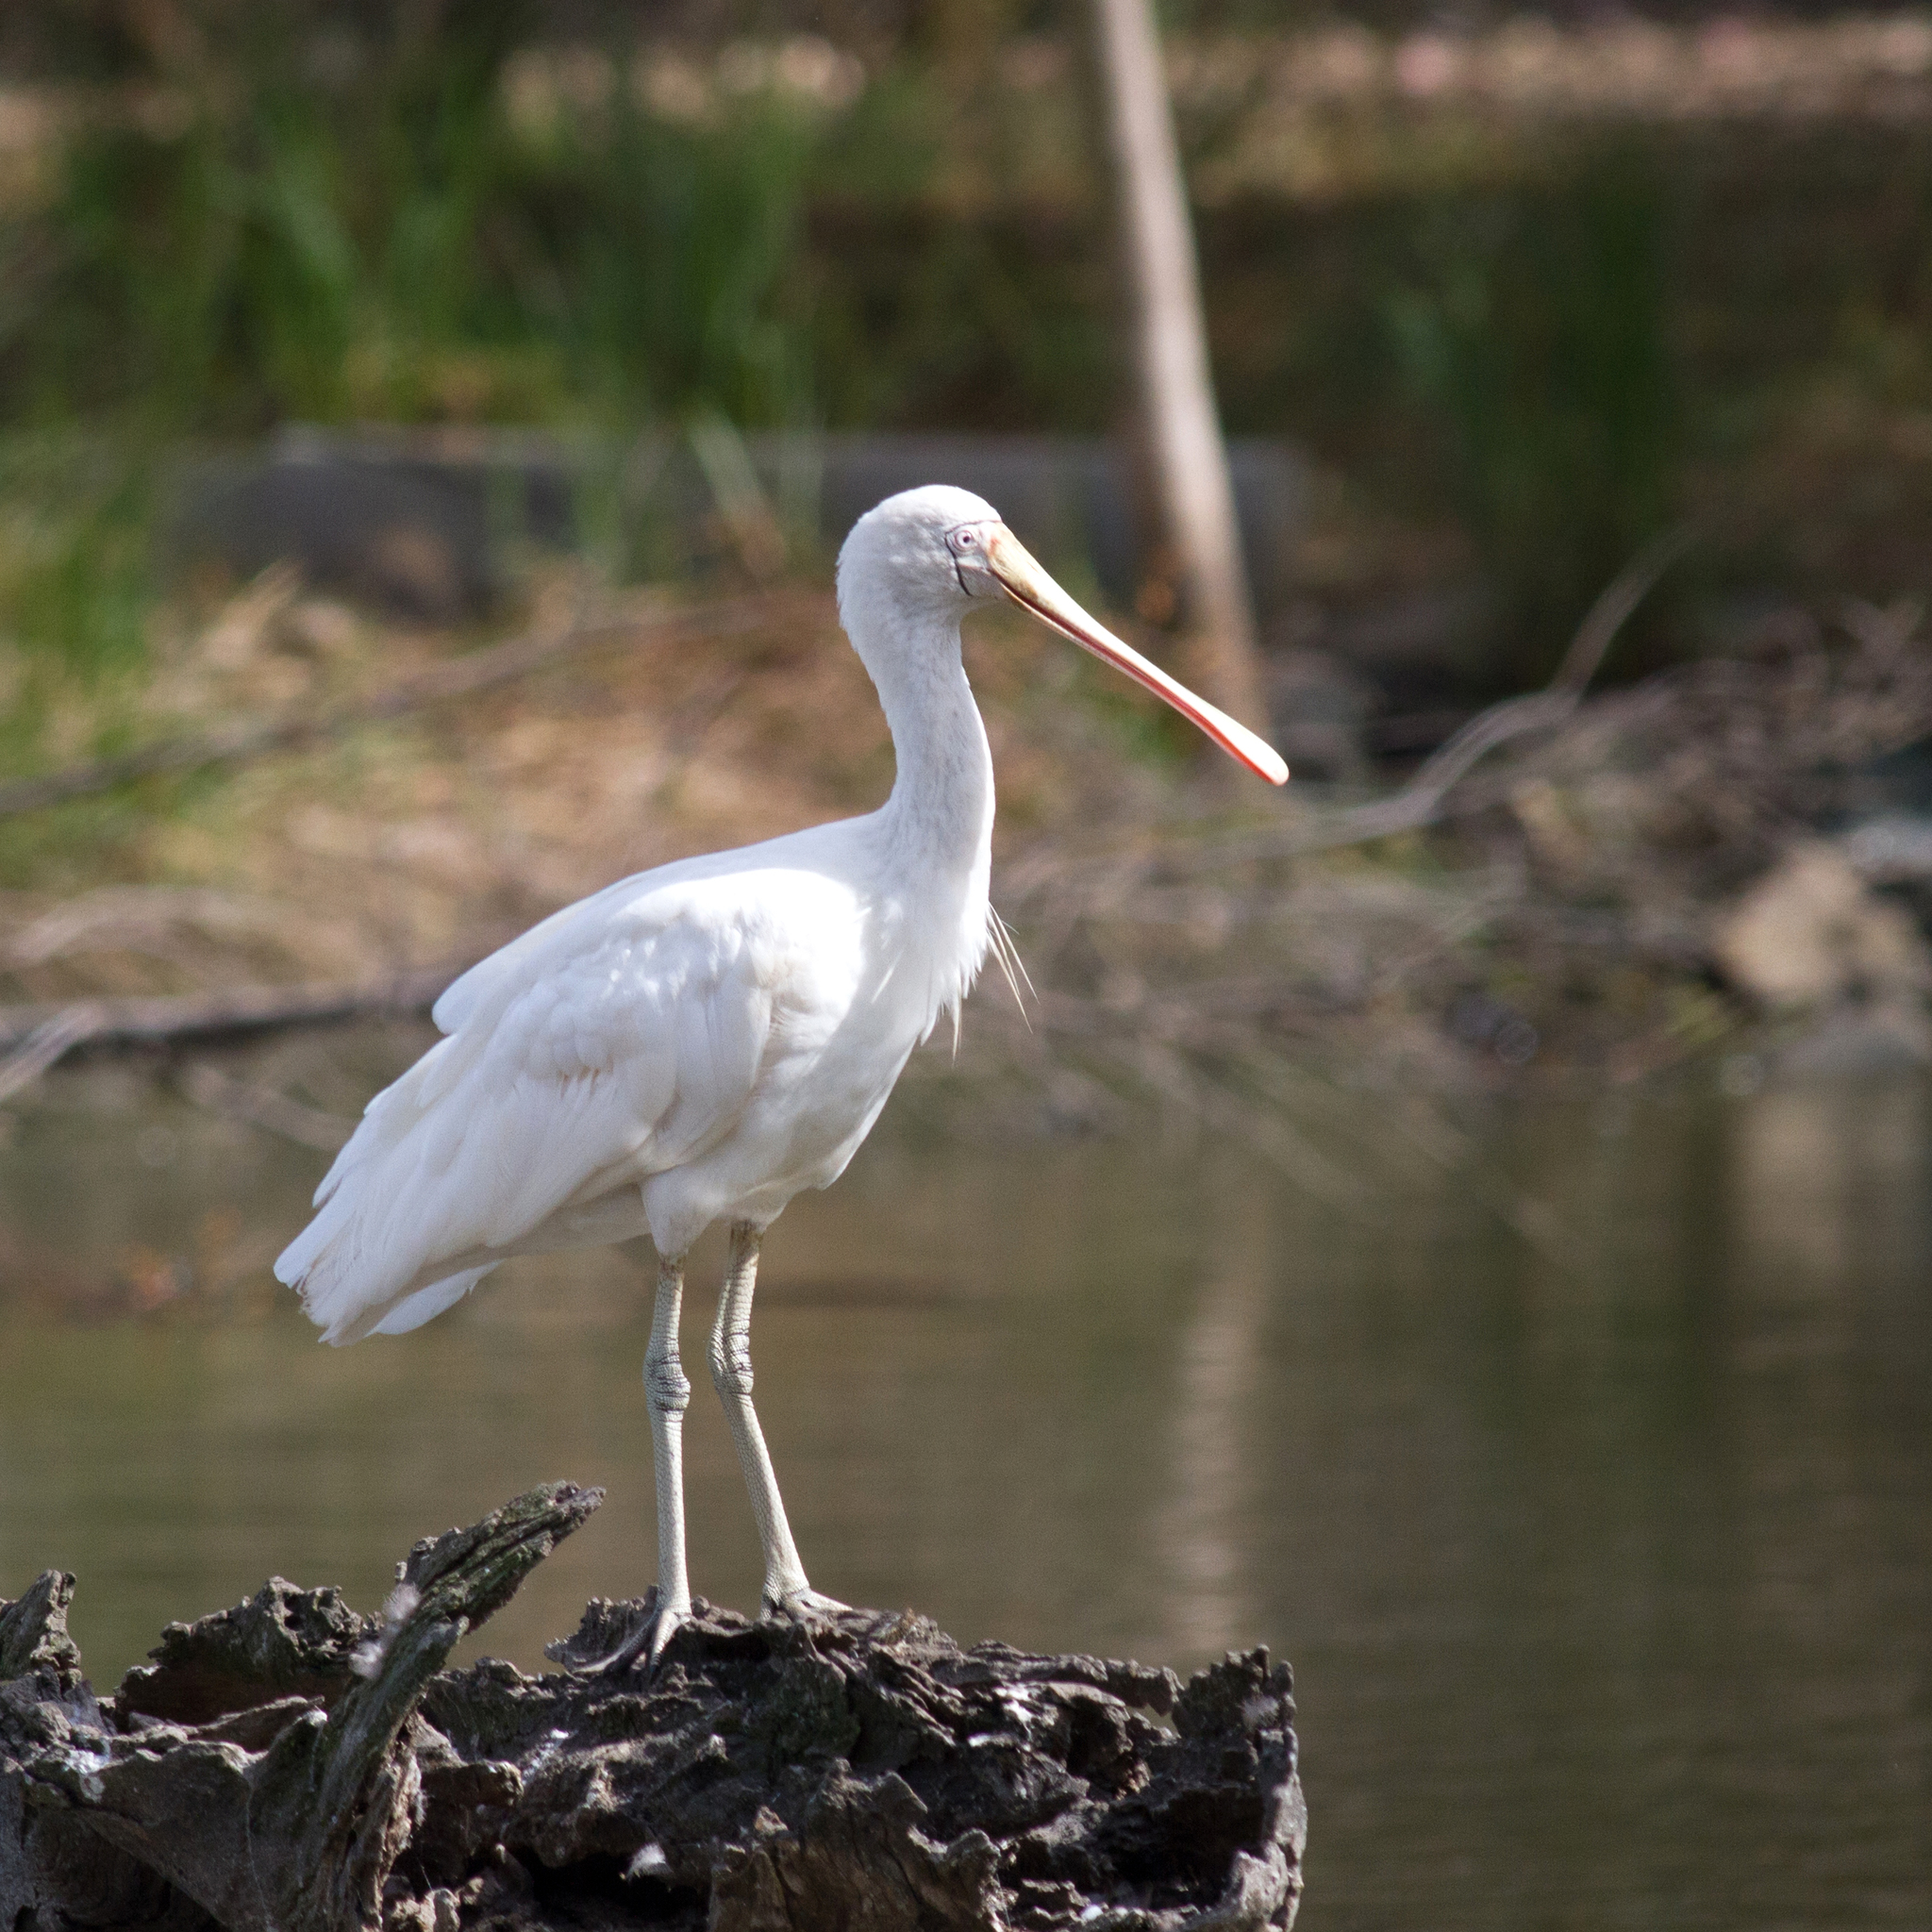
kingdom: Animalia
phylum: Chordata
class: Aves
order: Pelecaniformes
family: Threskiornithidae
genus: Platalea
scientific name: Platalea flavipes
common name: Yellow-billed spoonbill
